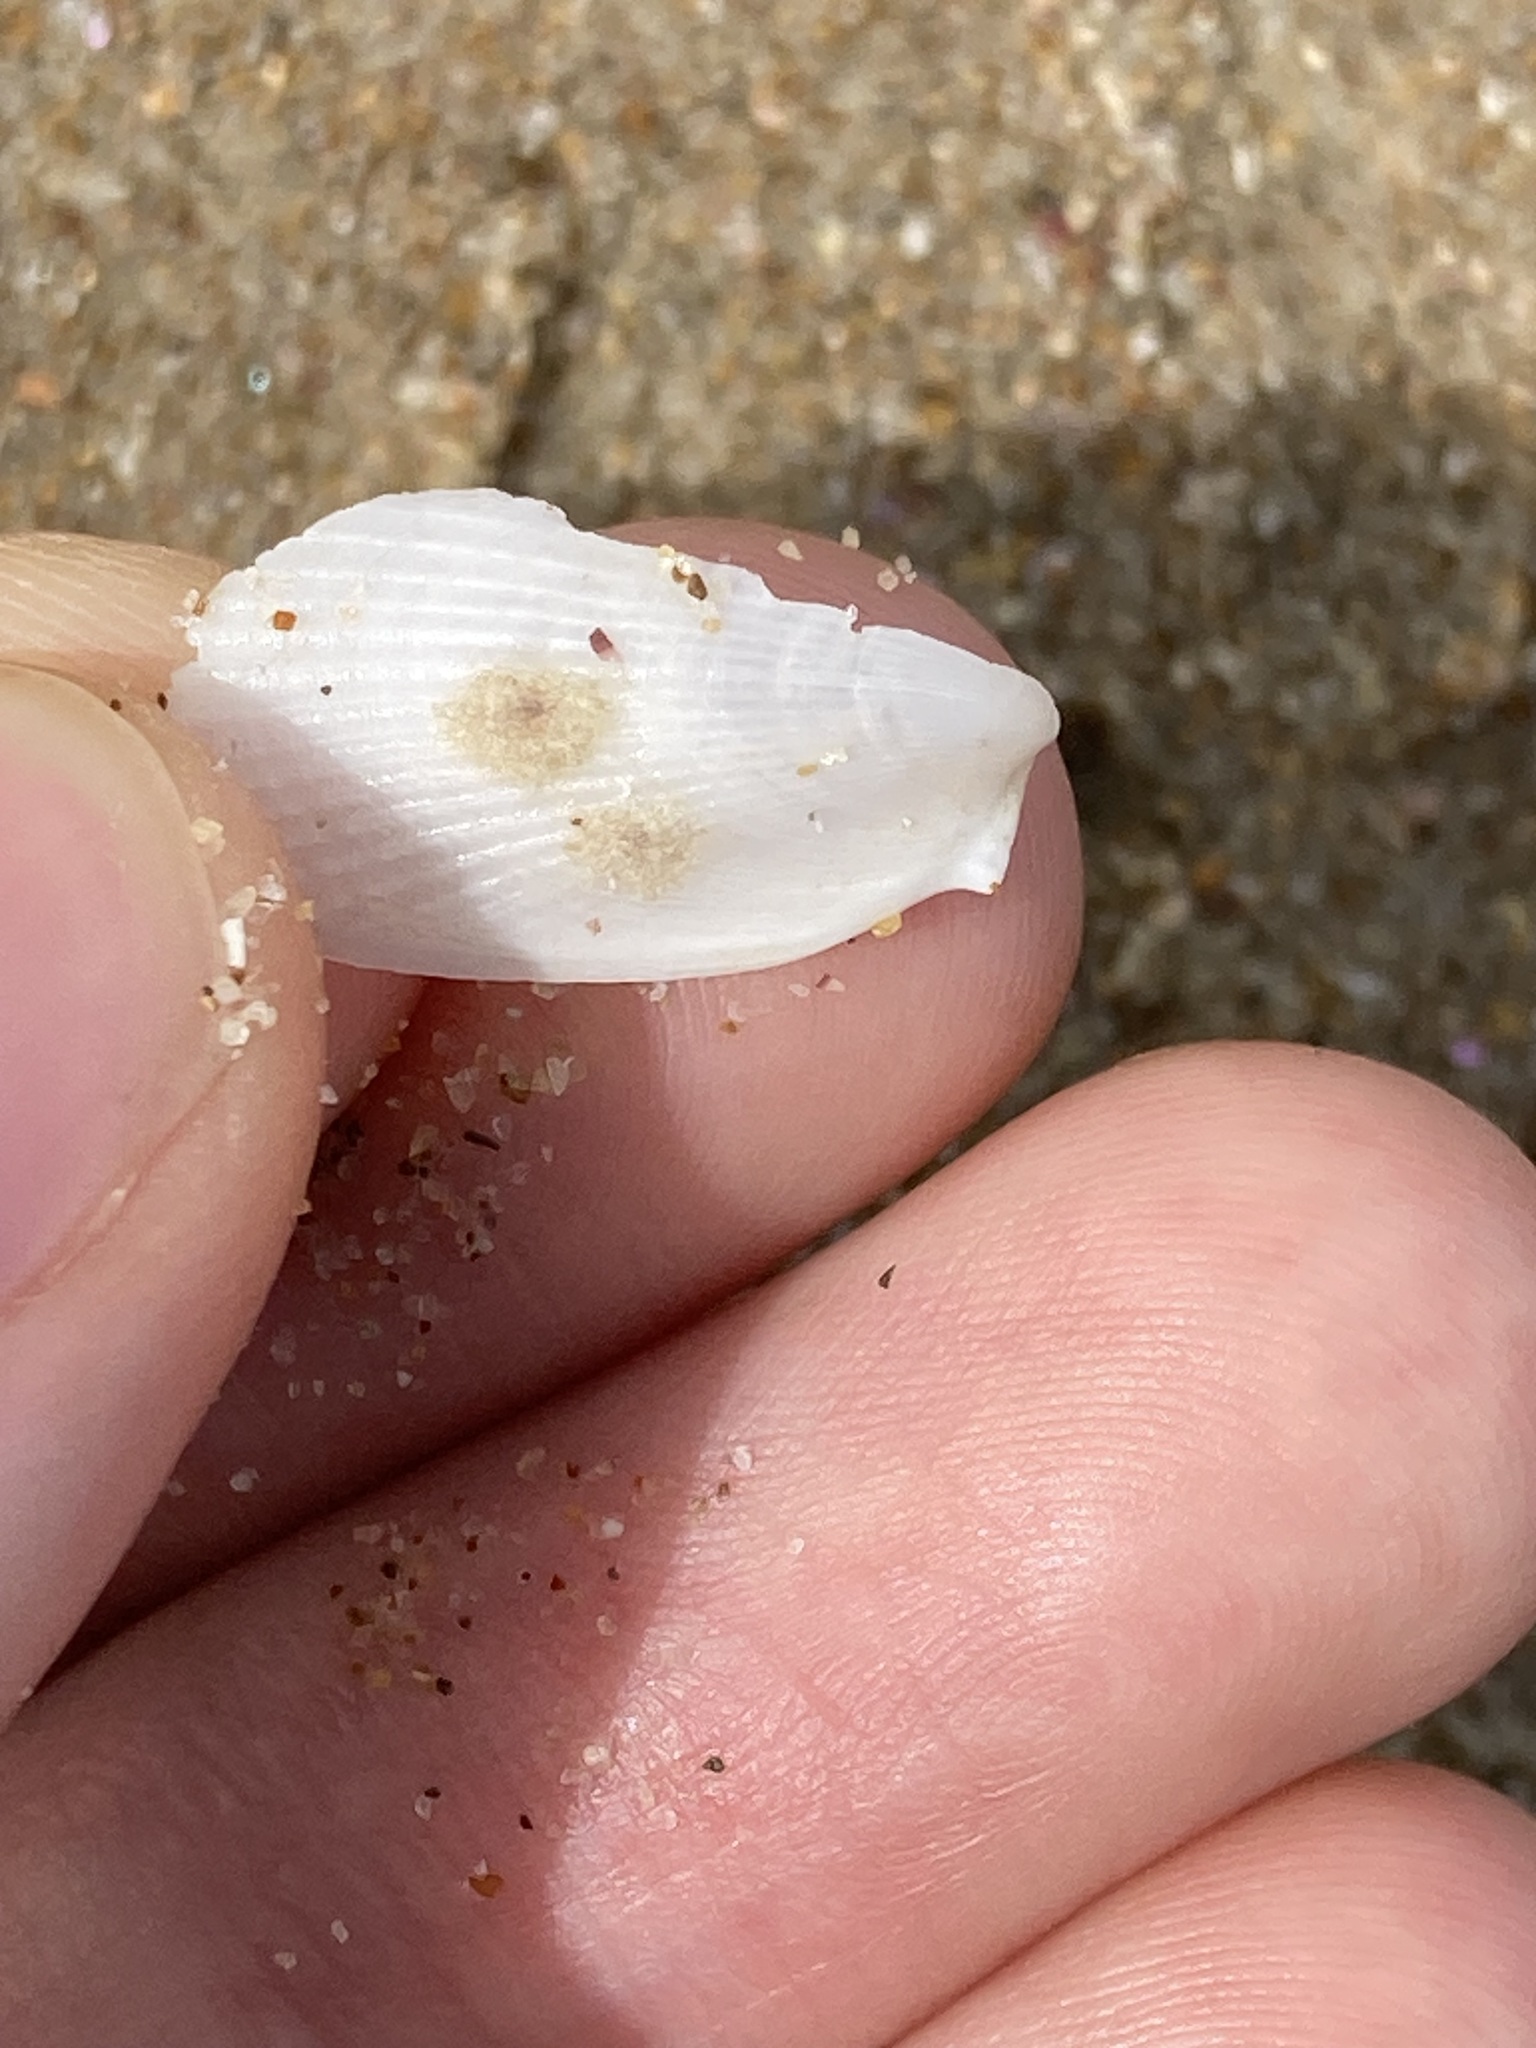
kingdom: Animalia
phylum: Mollusca
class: Bivalvia
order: Limida
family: Limidae
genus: Limatula
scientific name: Limatula strangei
